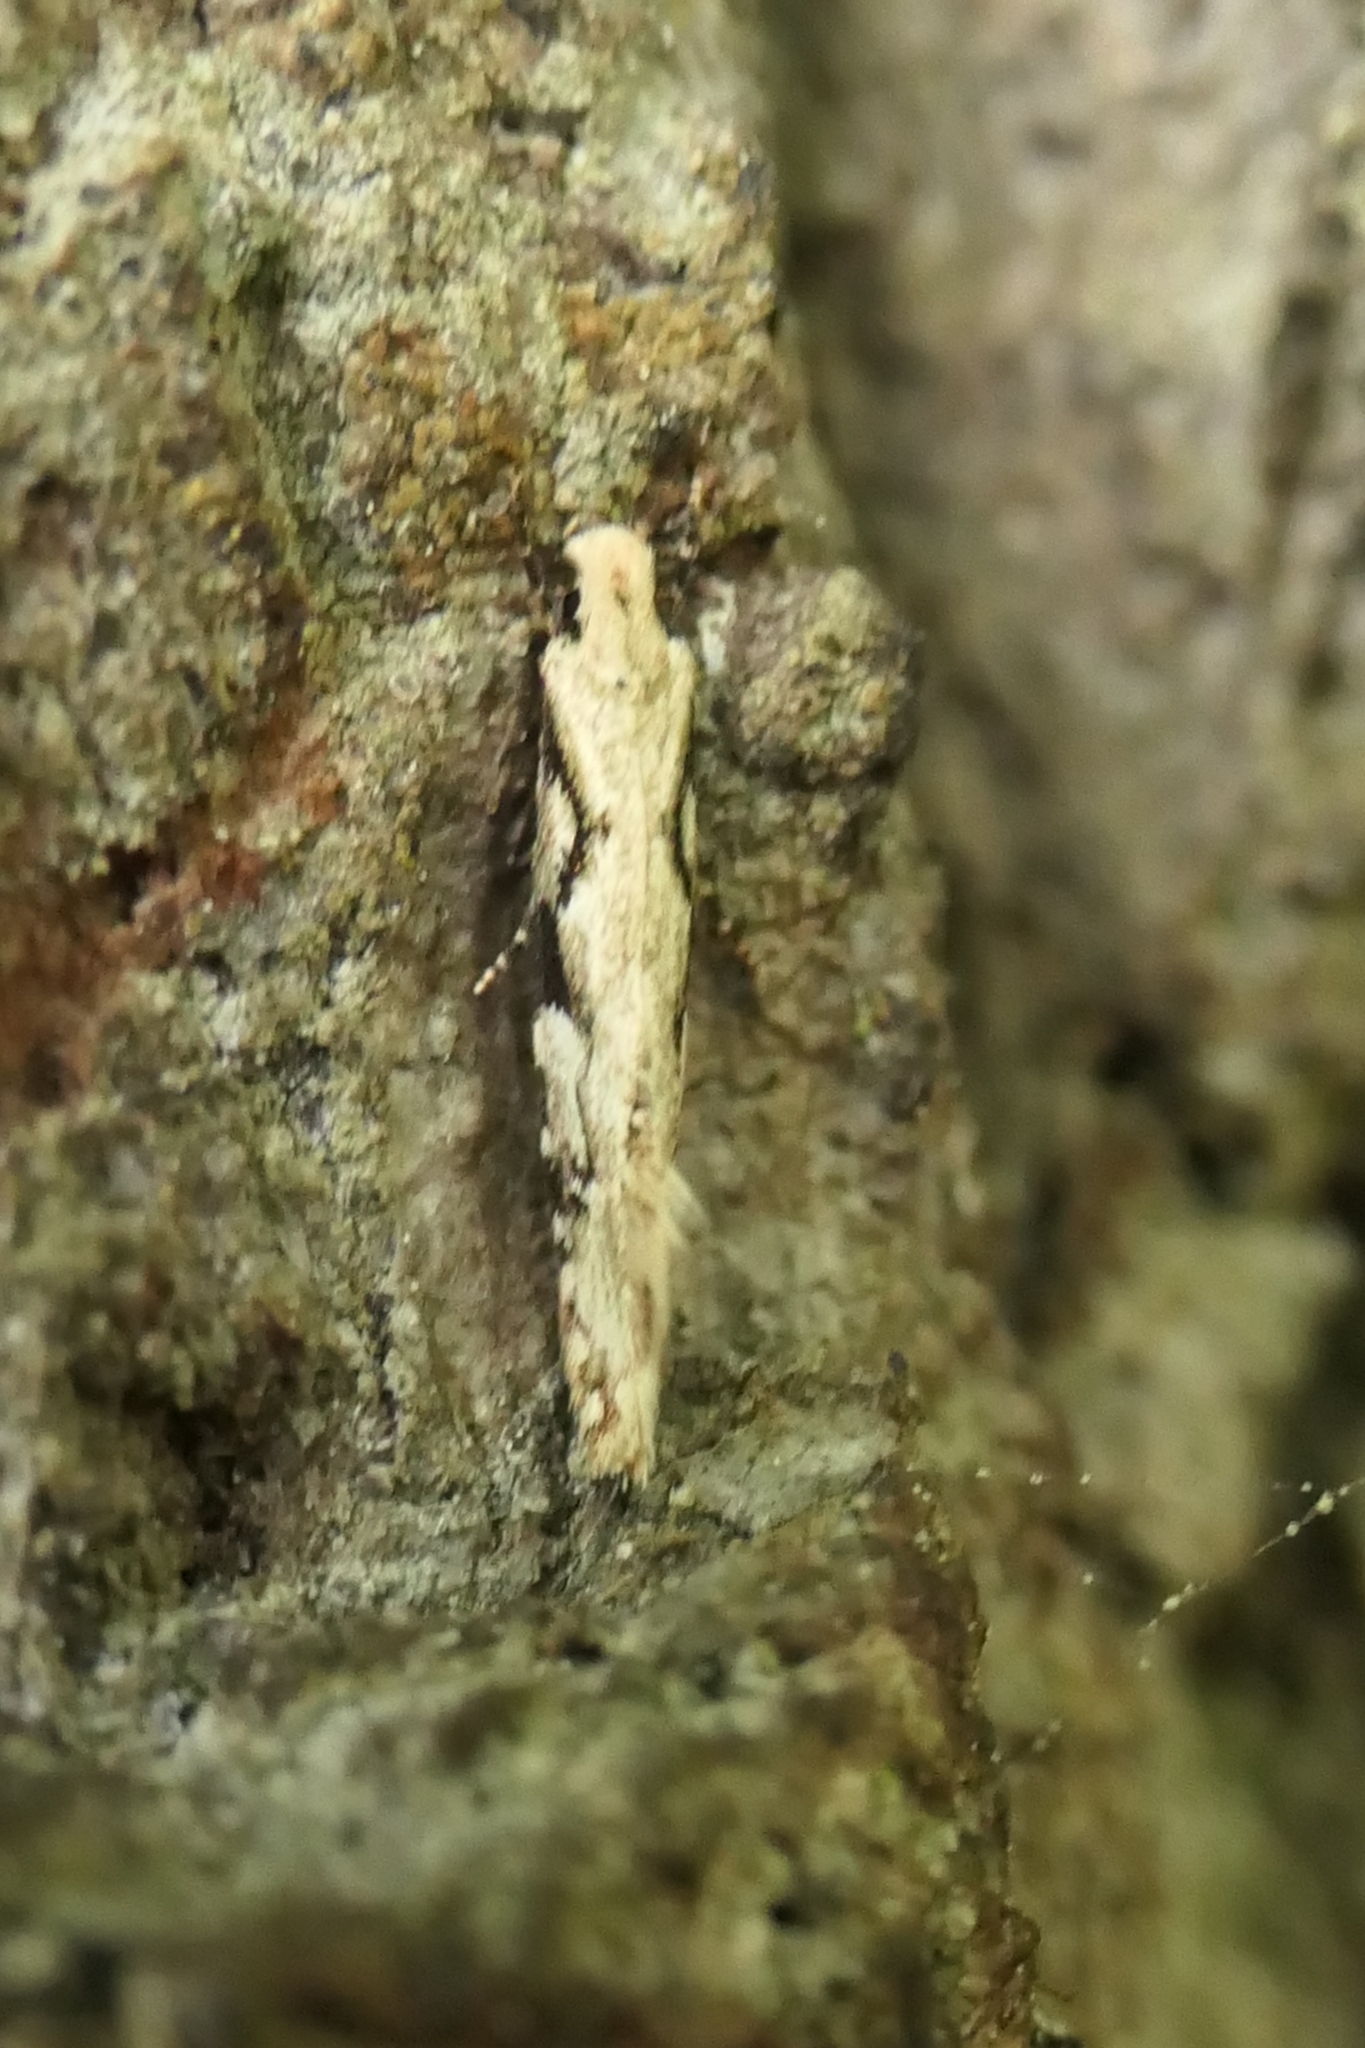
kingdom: Animalia
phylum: Arthropoda
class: Insecta
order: Lepidoptera
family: Tineidae
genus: Crypsitricha
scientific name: Crypsitricha mesotypa
